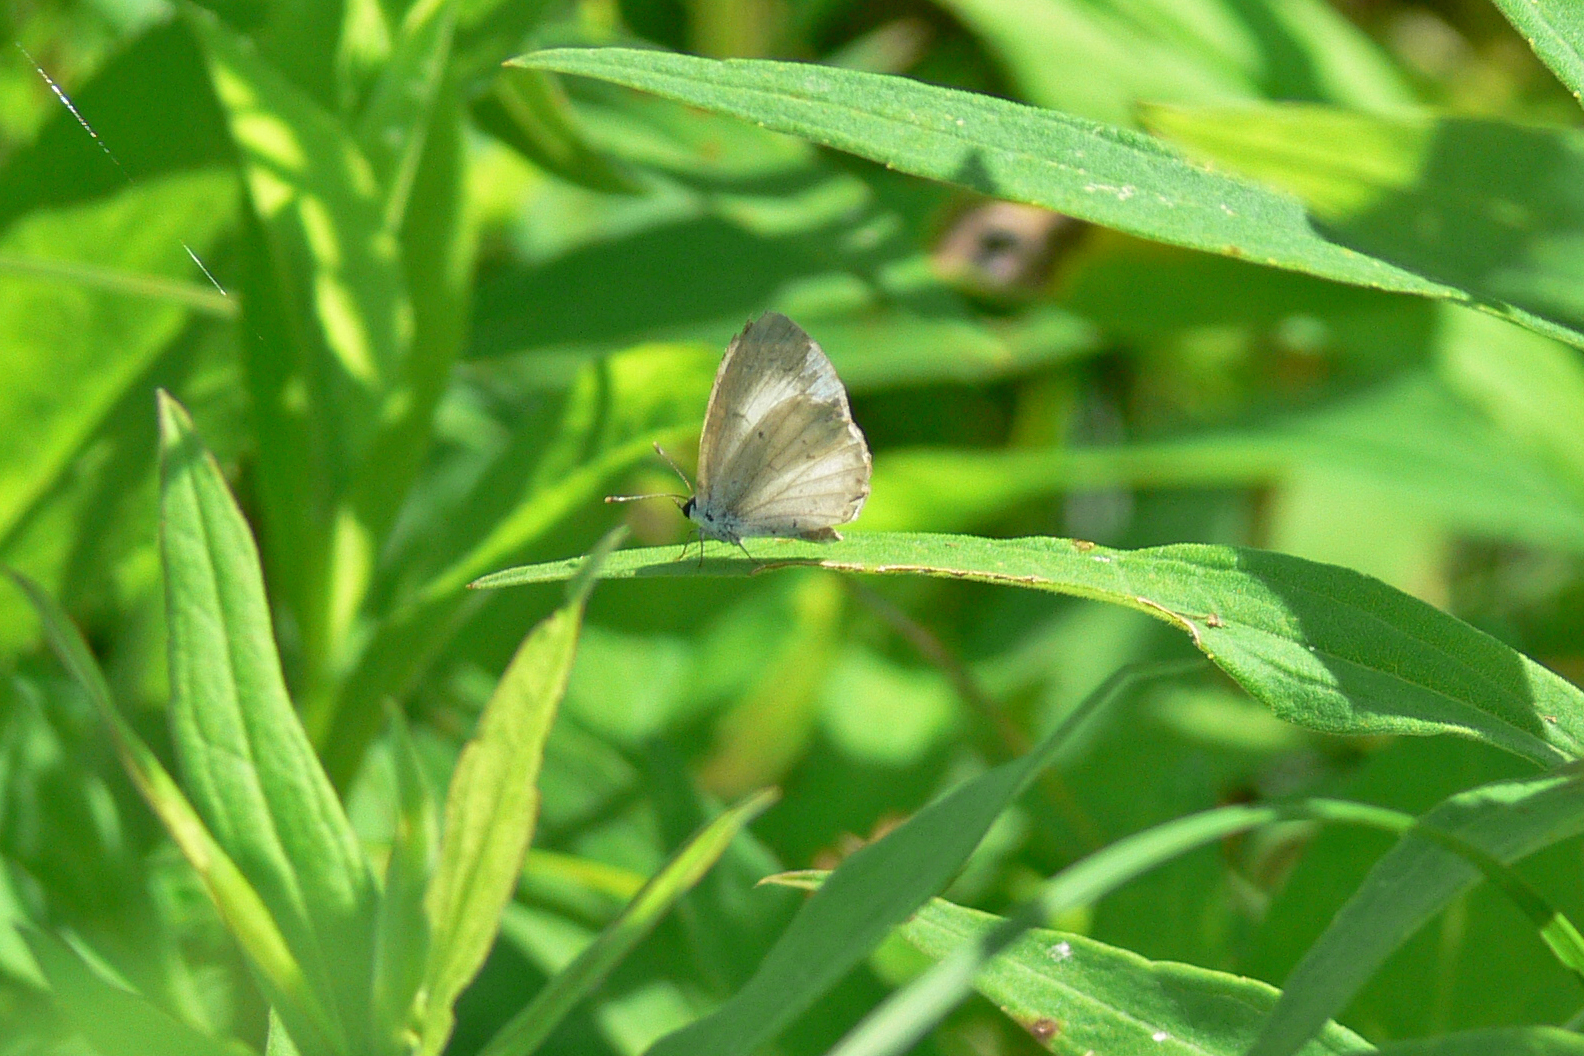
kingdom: Animalia
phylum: Arthropoda
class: Insecta
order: Lepidoptera
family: Lycaenidae
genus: Cyaniris
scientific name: Cyaniris neglecta
